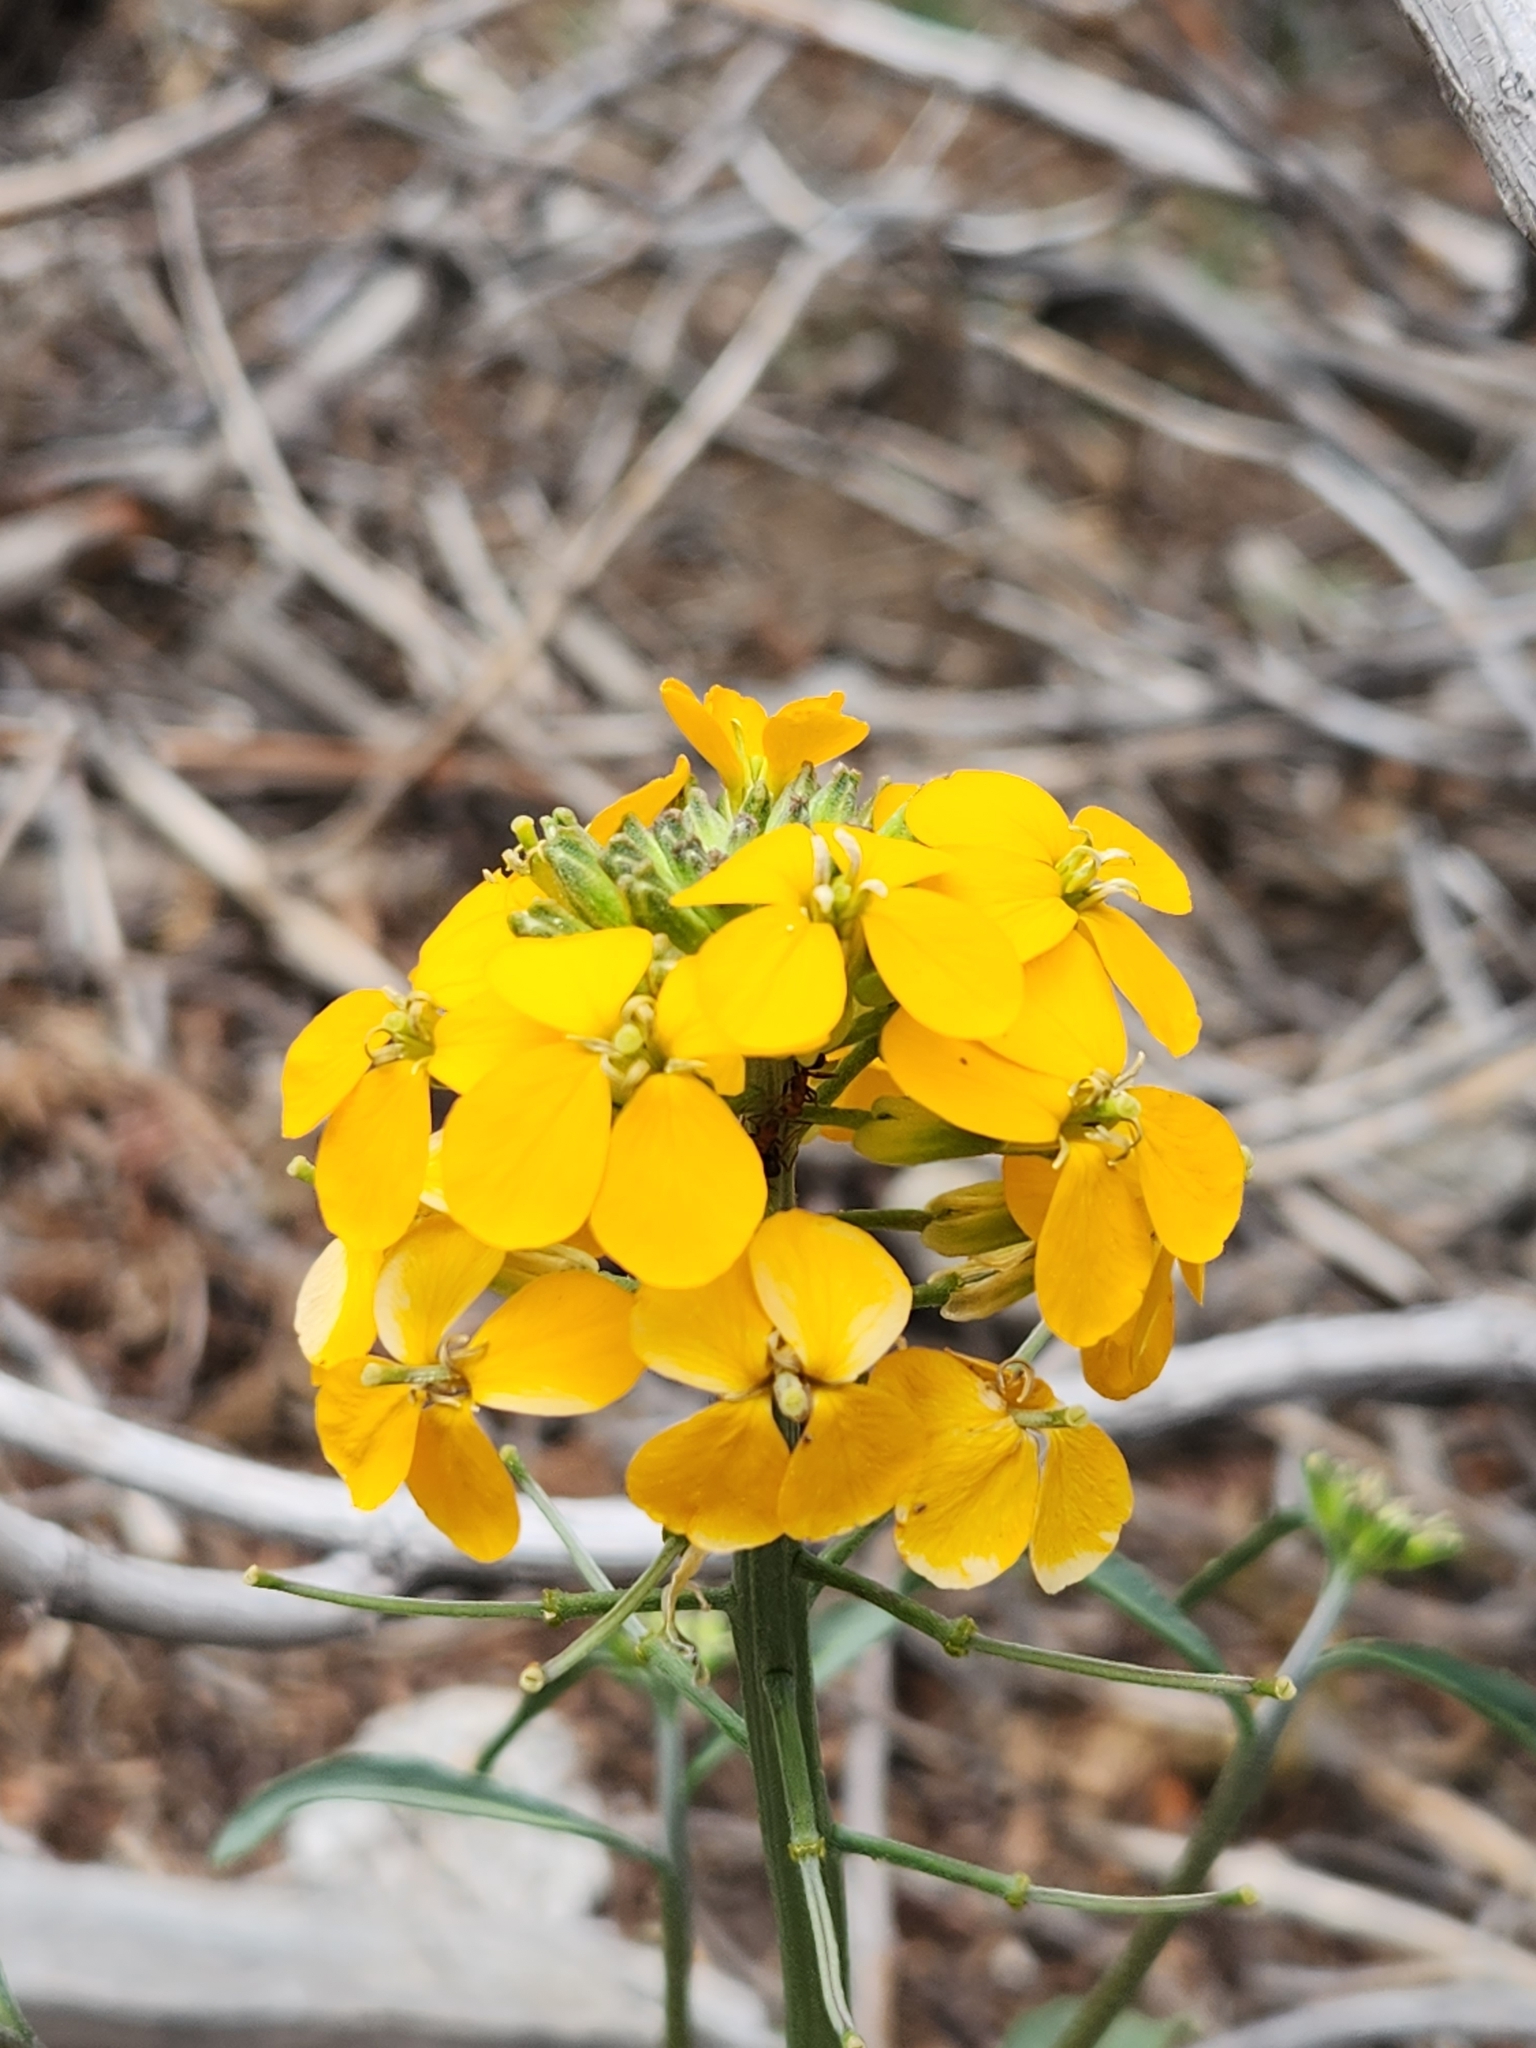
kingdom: Plantae
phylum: Tracheophyta
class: Magnoliopsida
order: Brassicales
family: Brassicaceae
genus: Erysimum
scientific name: Erysimum capitatum
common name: Western wallflower
